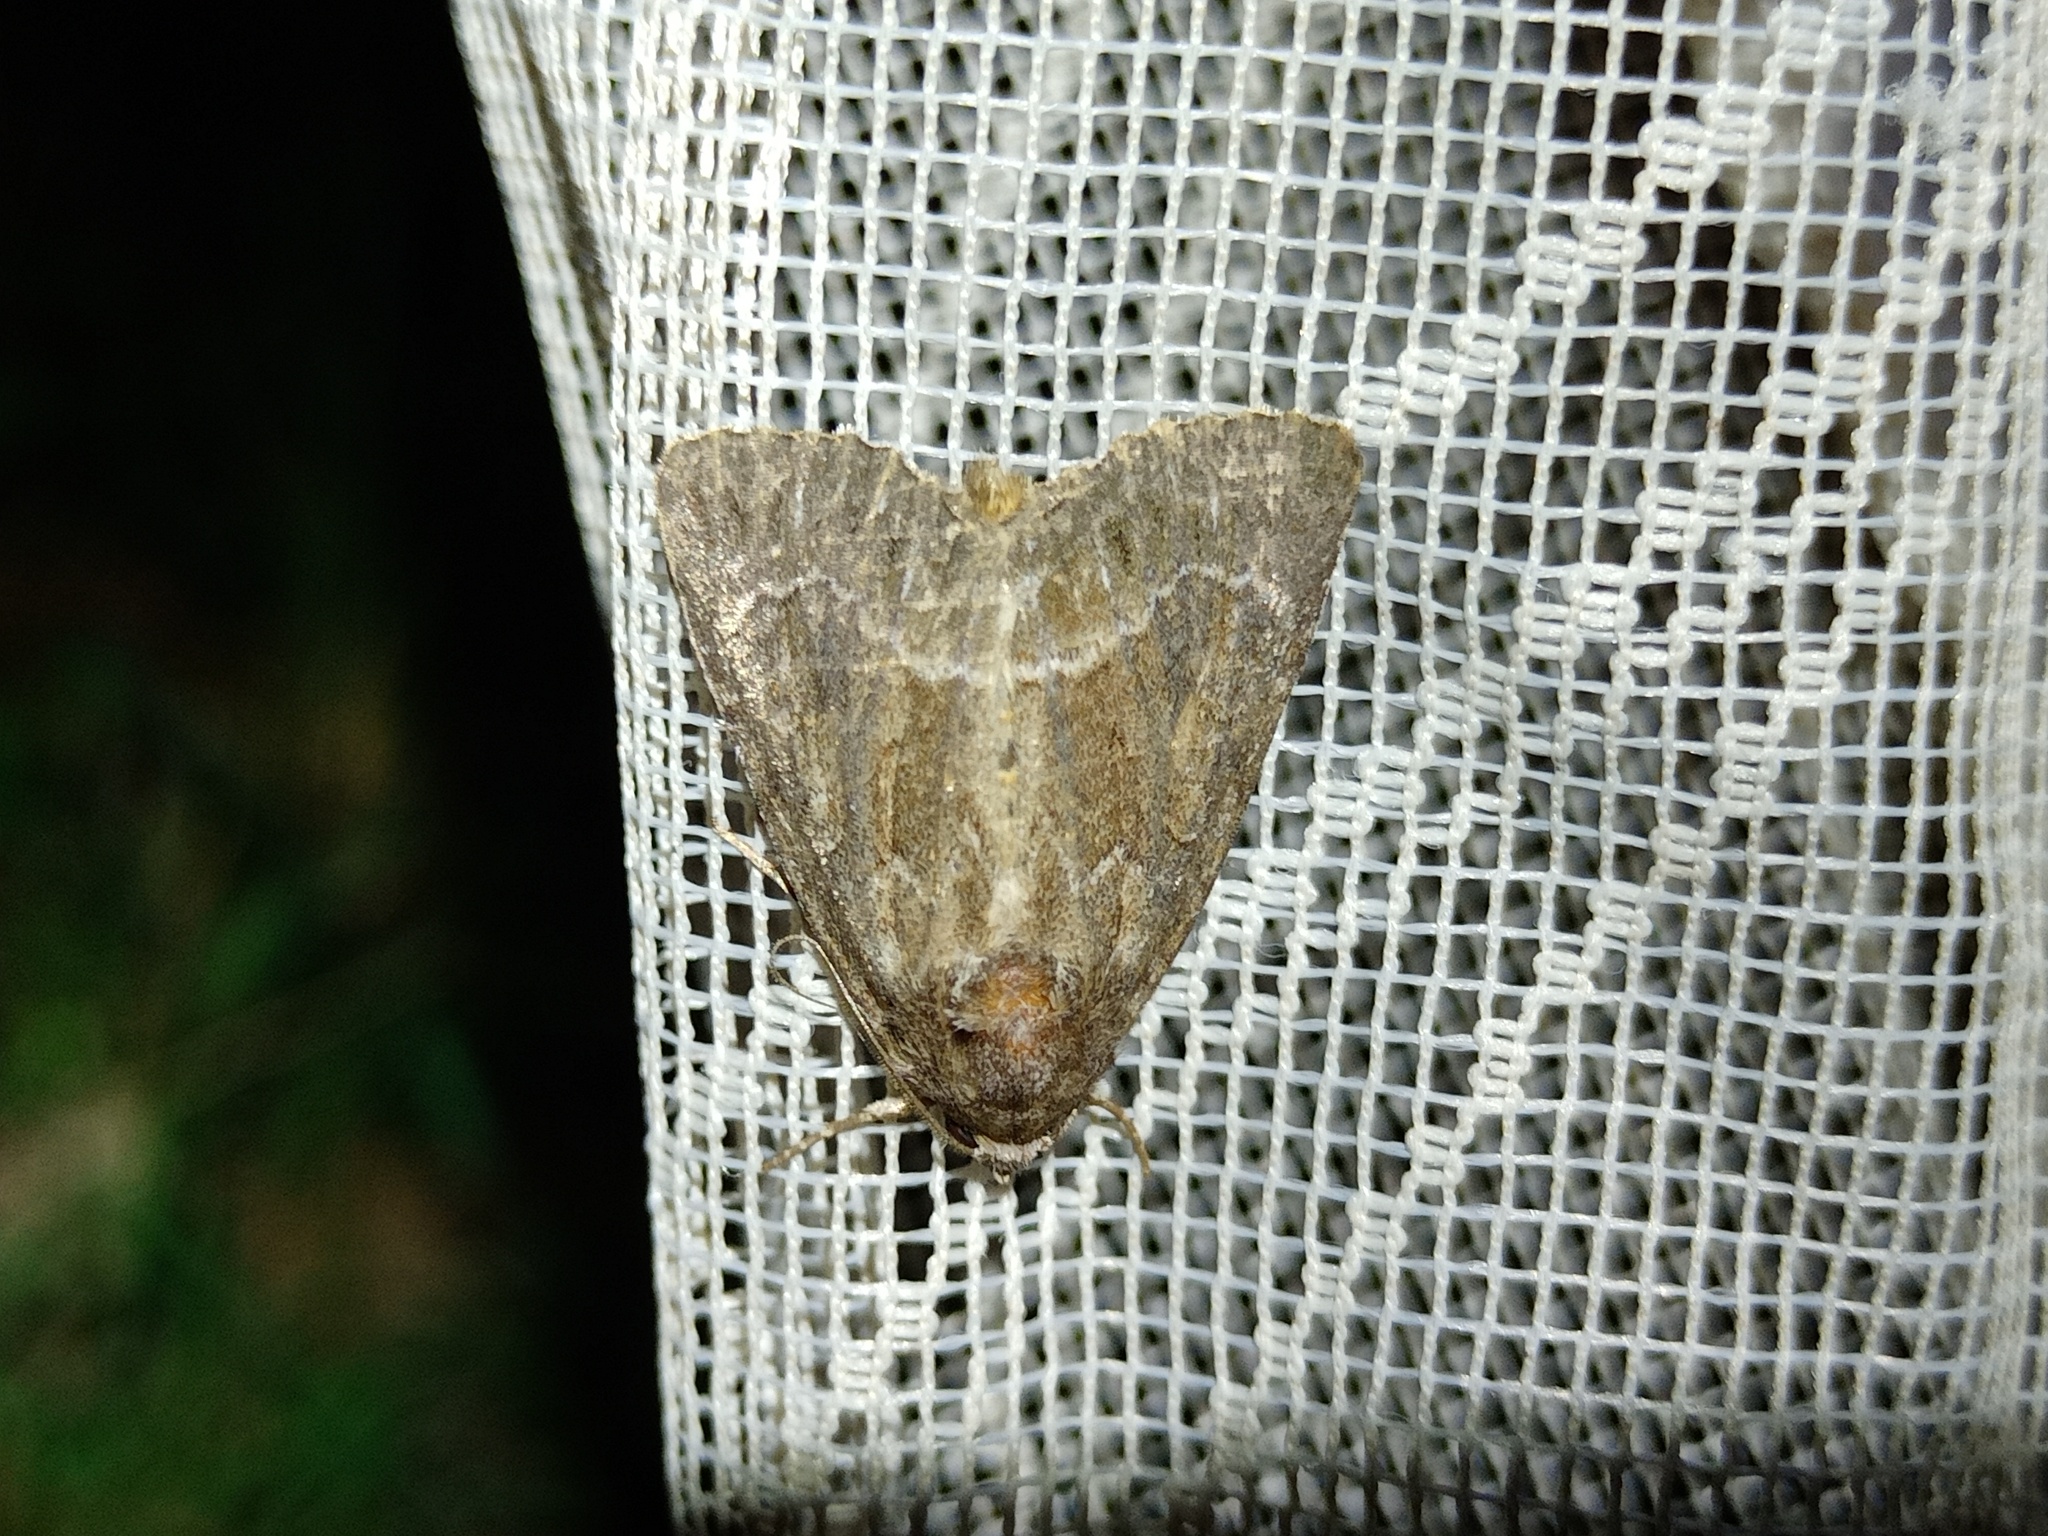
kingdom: Animalia
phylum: Arthropoda
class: Insecta
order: Lepidoptera
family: Noctuidae
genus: Thalpophila
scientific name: Thalpophila matura
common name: Straw underwing
